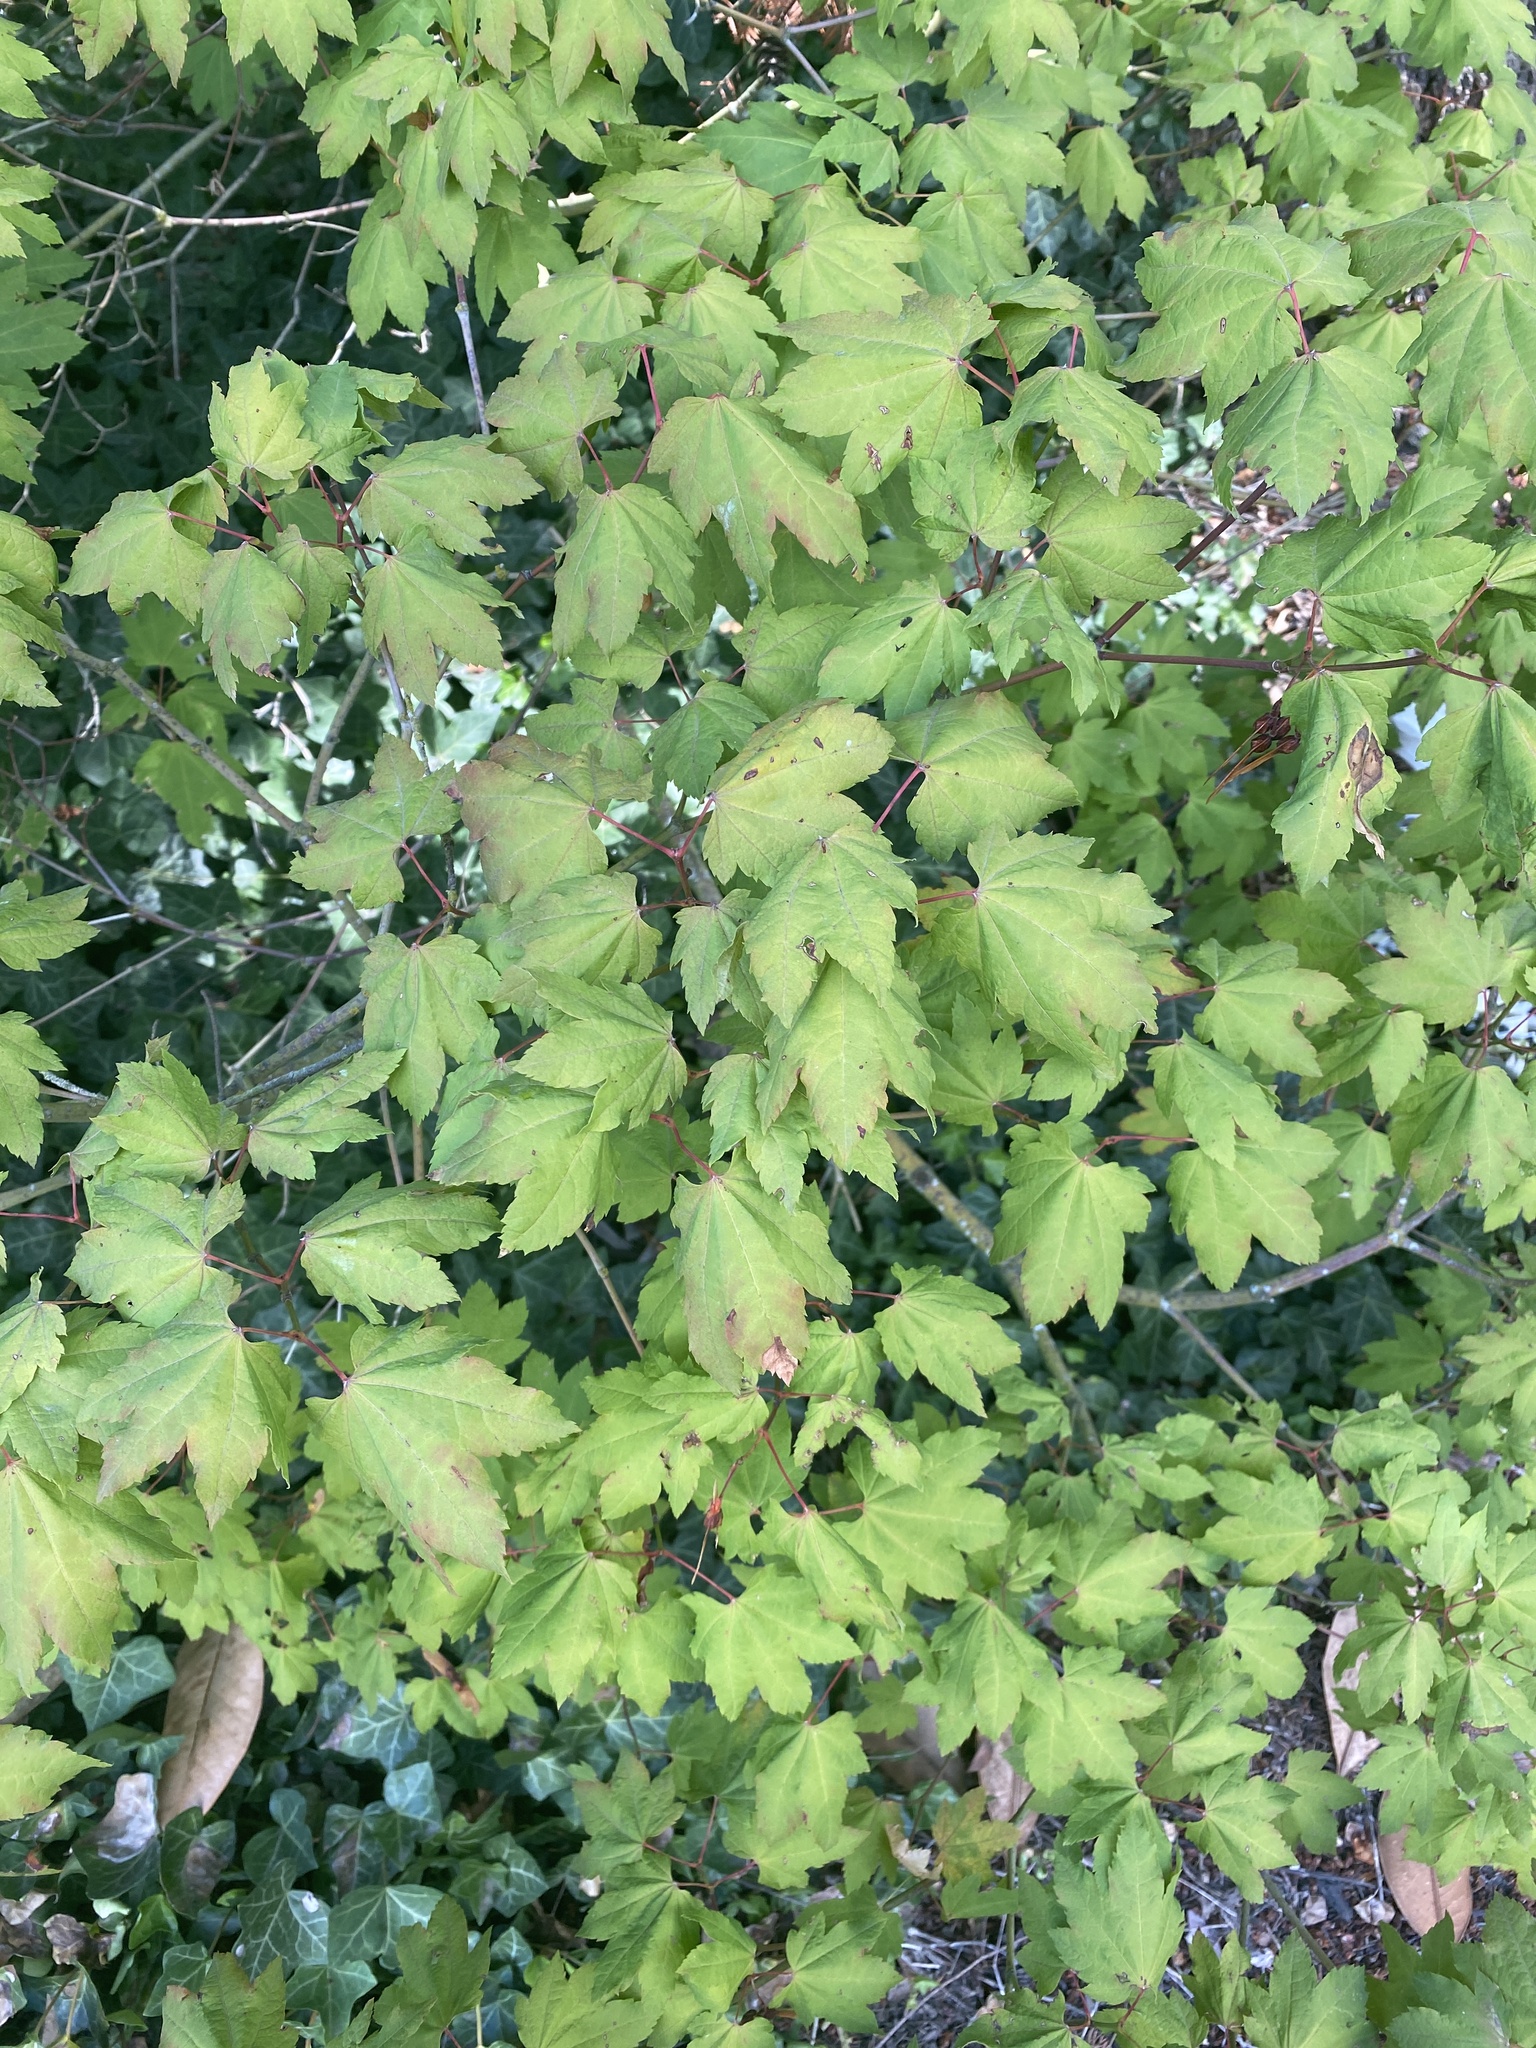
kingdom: Plantae
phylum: Tracheophyta
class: Magnoliopsida
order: Sapindales
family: Sapindaceae
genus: Acer
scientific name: Acer circinatum
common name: Vine maple
